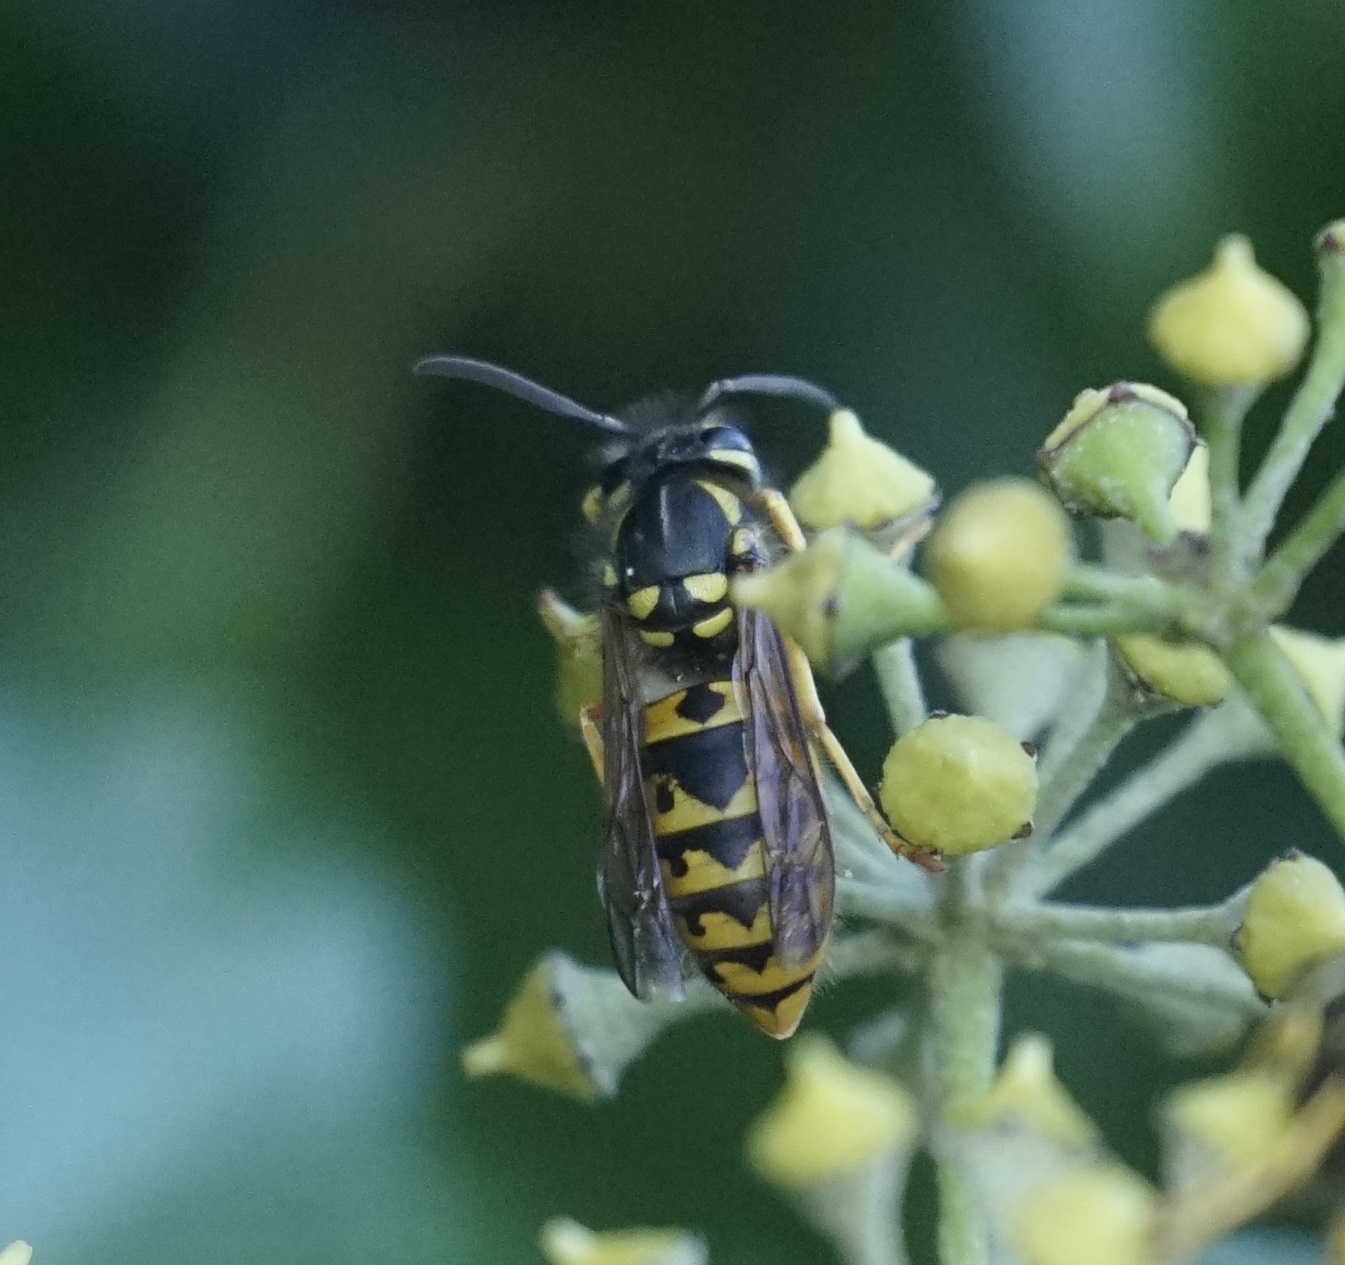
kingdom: Animalia
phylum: Arthropoda
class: Insecta
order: Hymenoptera
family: Vespidae
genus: Vespula
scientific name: Vespula germanica
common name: German wasp
